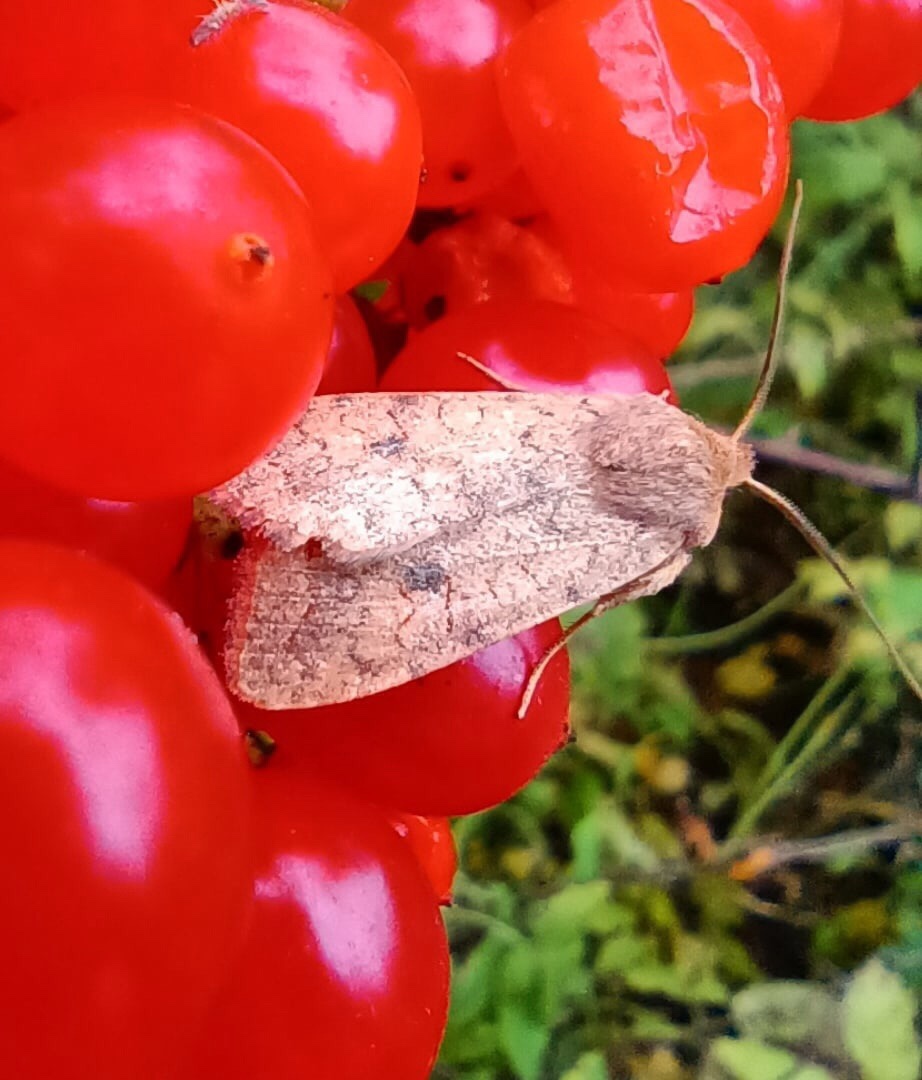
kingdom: Animalia
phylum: Arthropoda
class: Insecta
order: Lepidoptera
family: Noctuidae
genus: Sunira
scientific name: Sunira circellaris
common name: Brick
